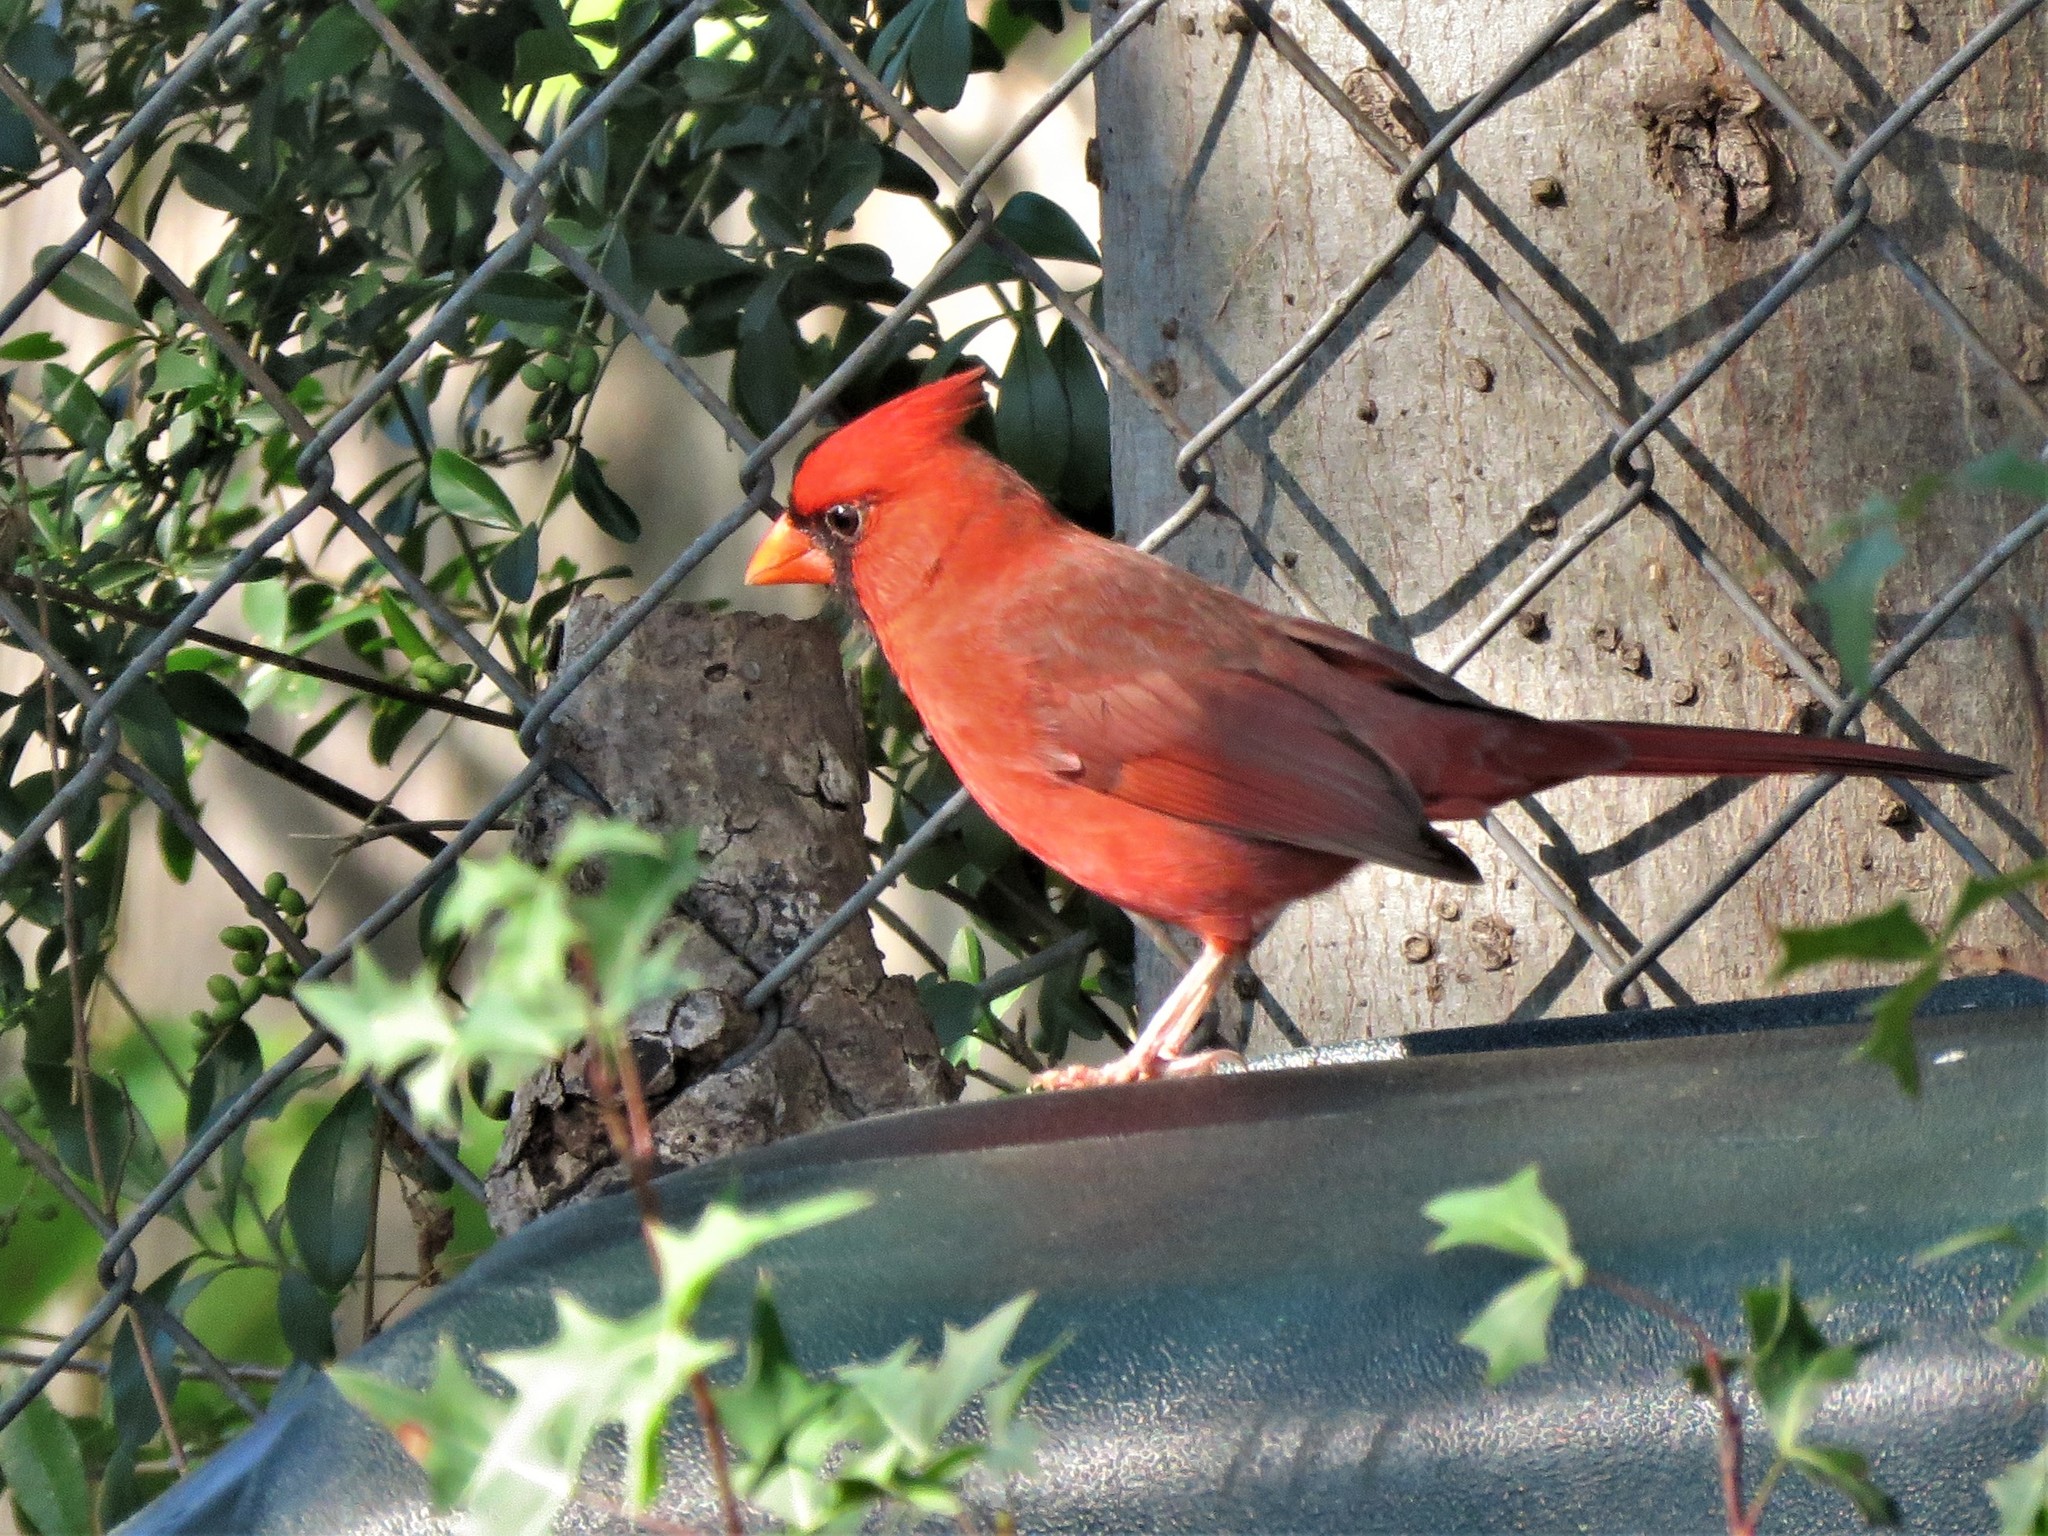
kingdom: Animalia
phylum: Chordata
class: Aves
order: Passeriformes
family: Cardinalidae
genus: Cardinalis
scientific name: Cardinalis cardinalis
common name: Northern cardinal
